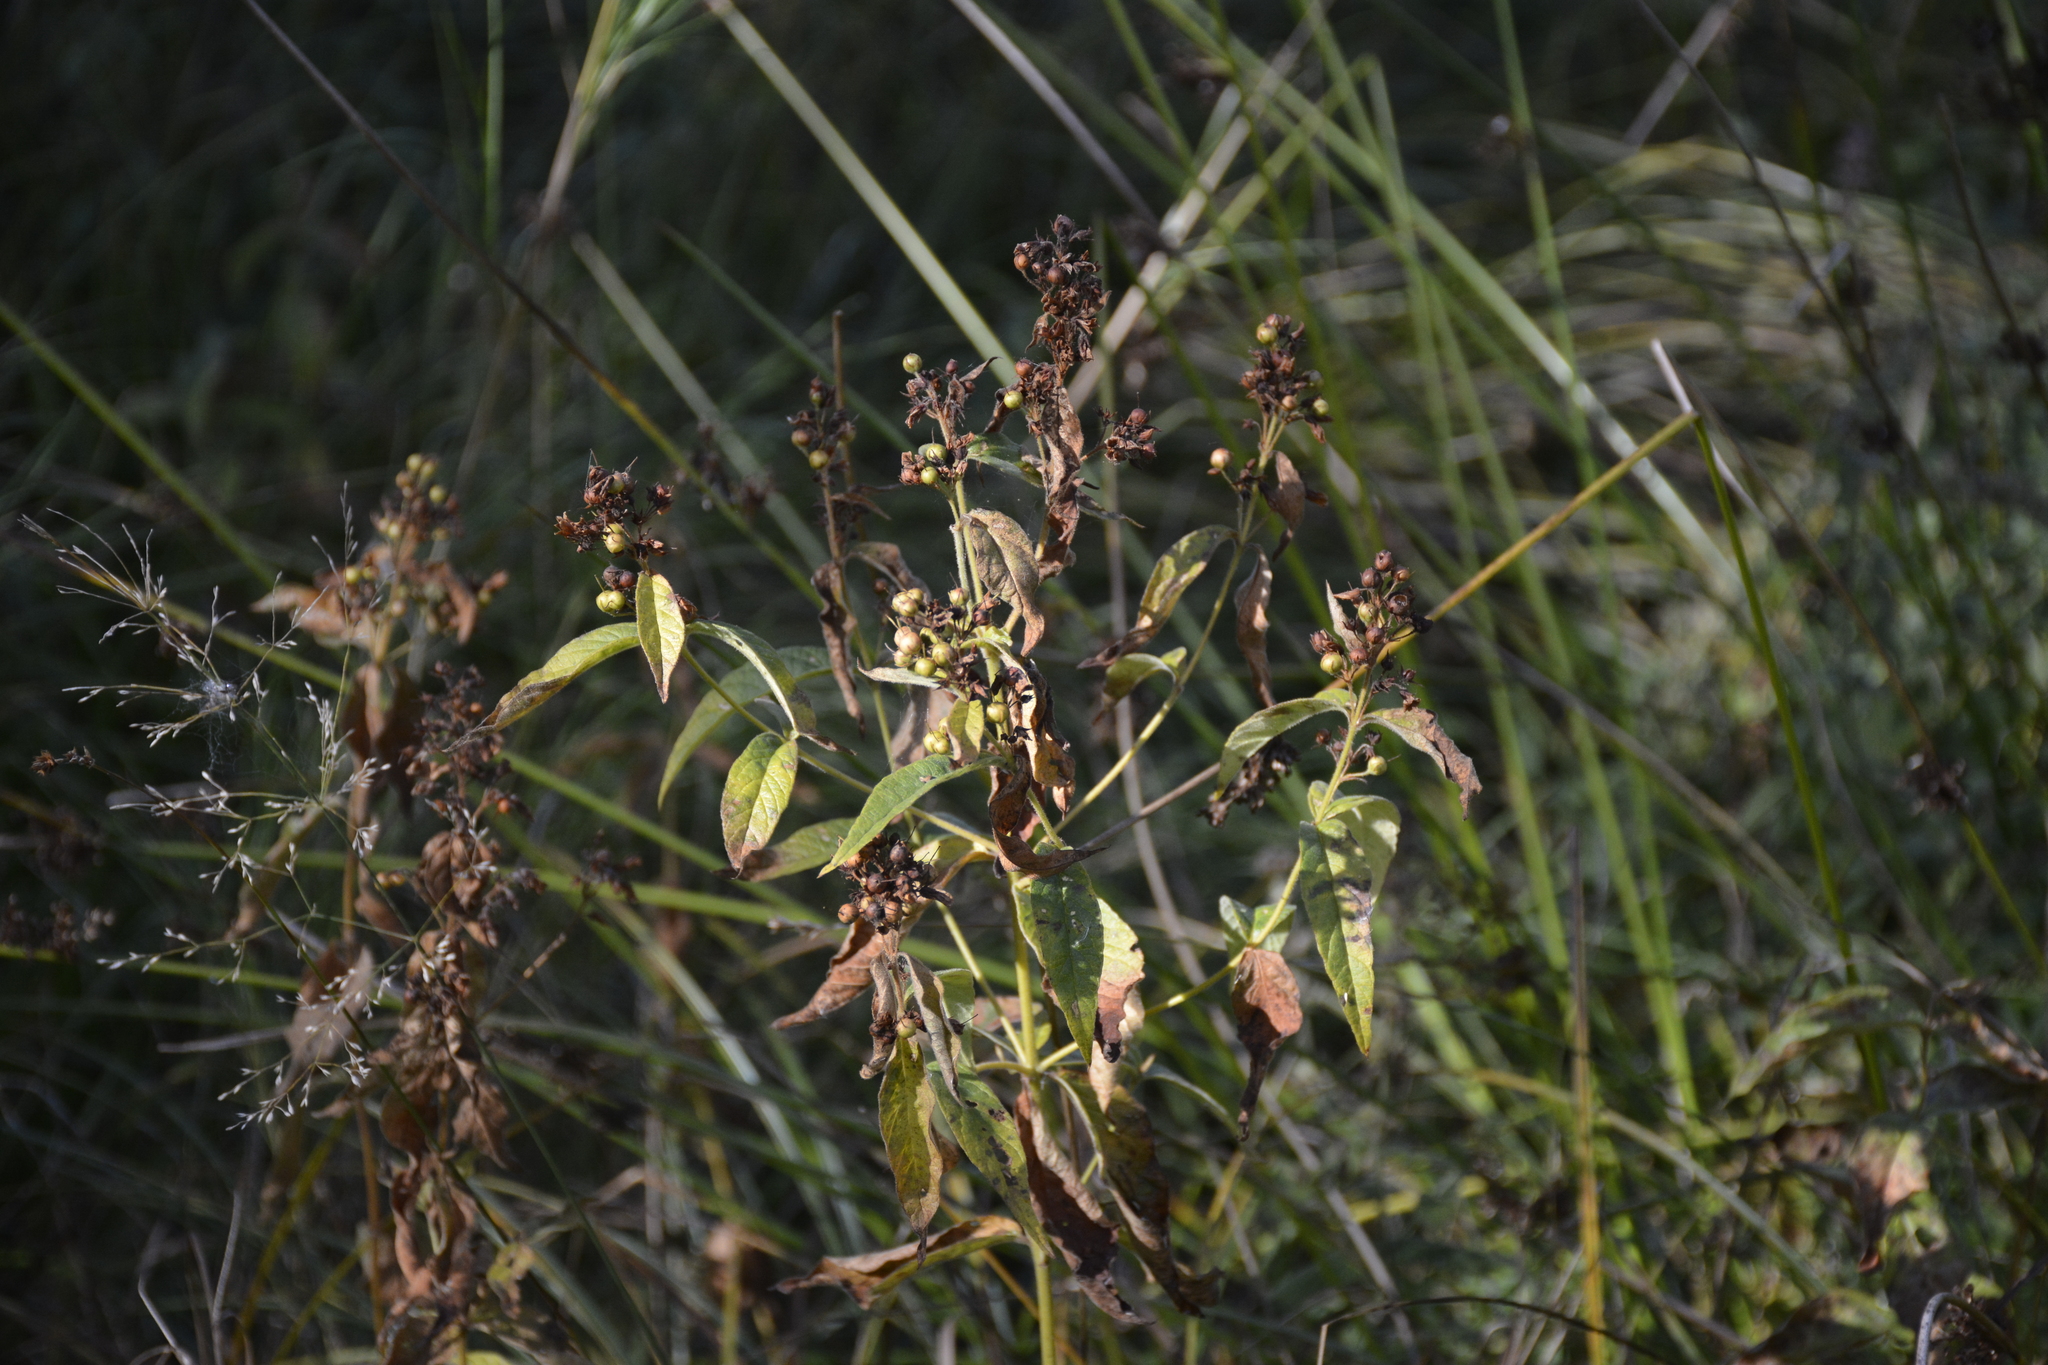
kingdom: Plantae
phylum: Tracheophyta
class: Magnoliopsida
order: Ericales
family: Primulaceae
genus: Lysimachia
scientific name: Lysimachia vulgaris
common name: Yellow loosestrife
